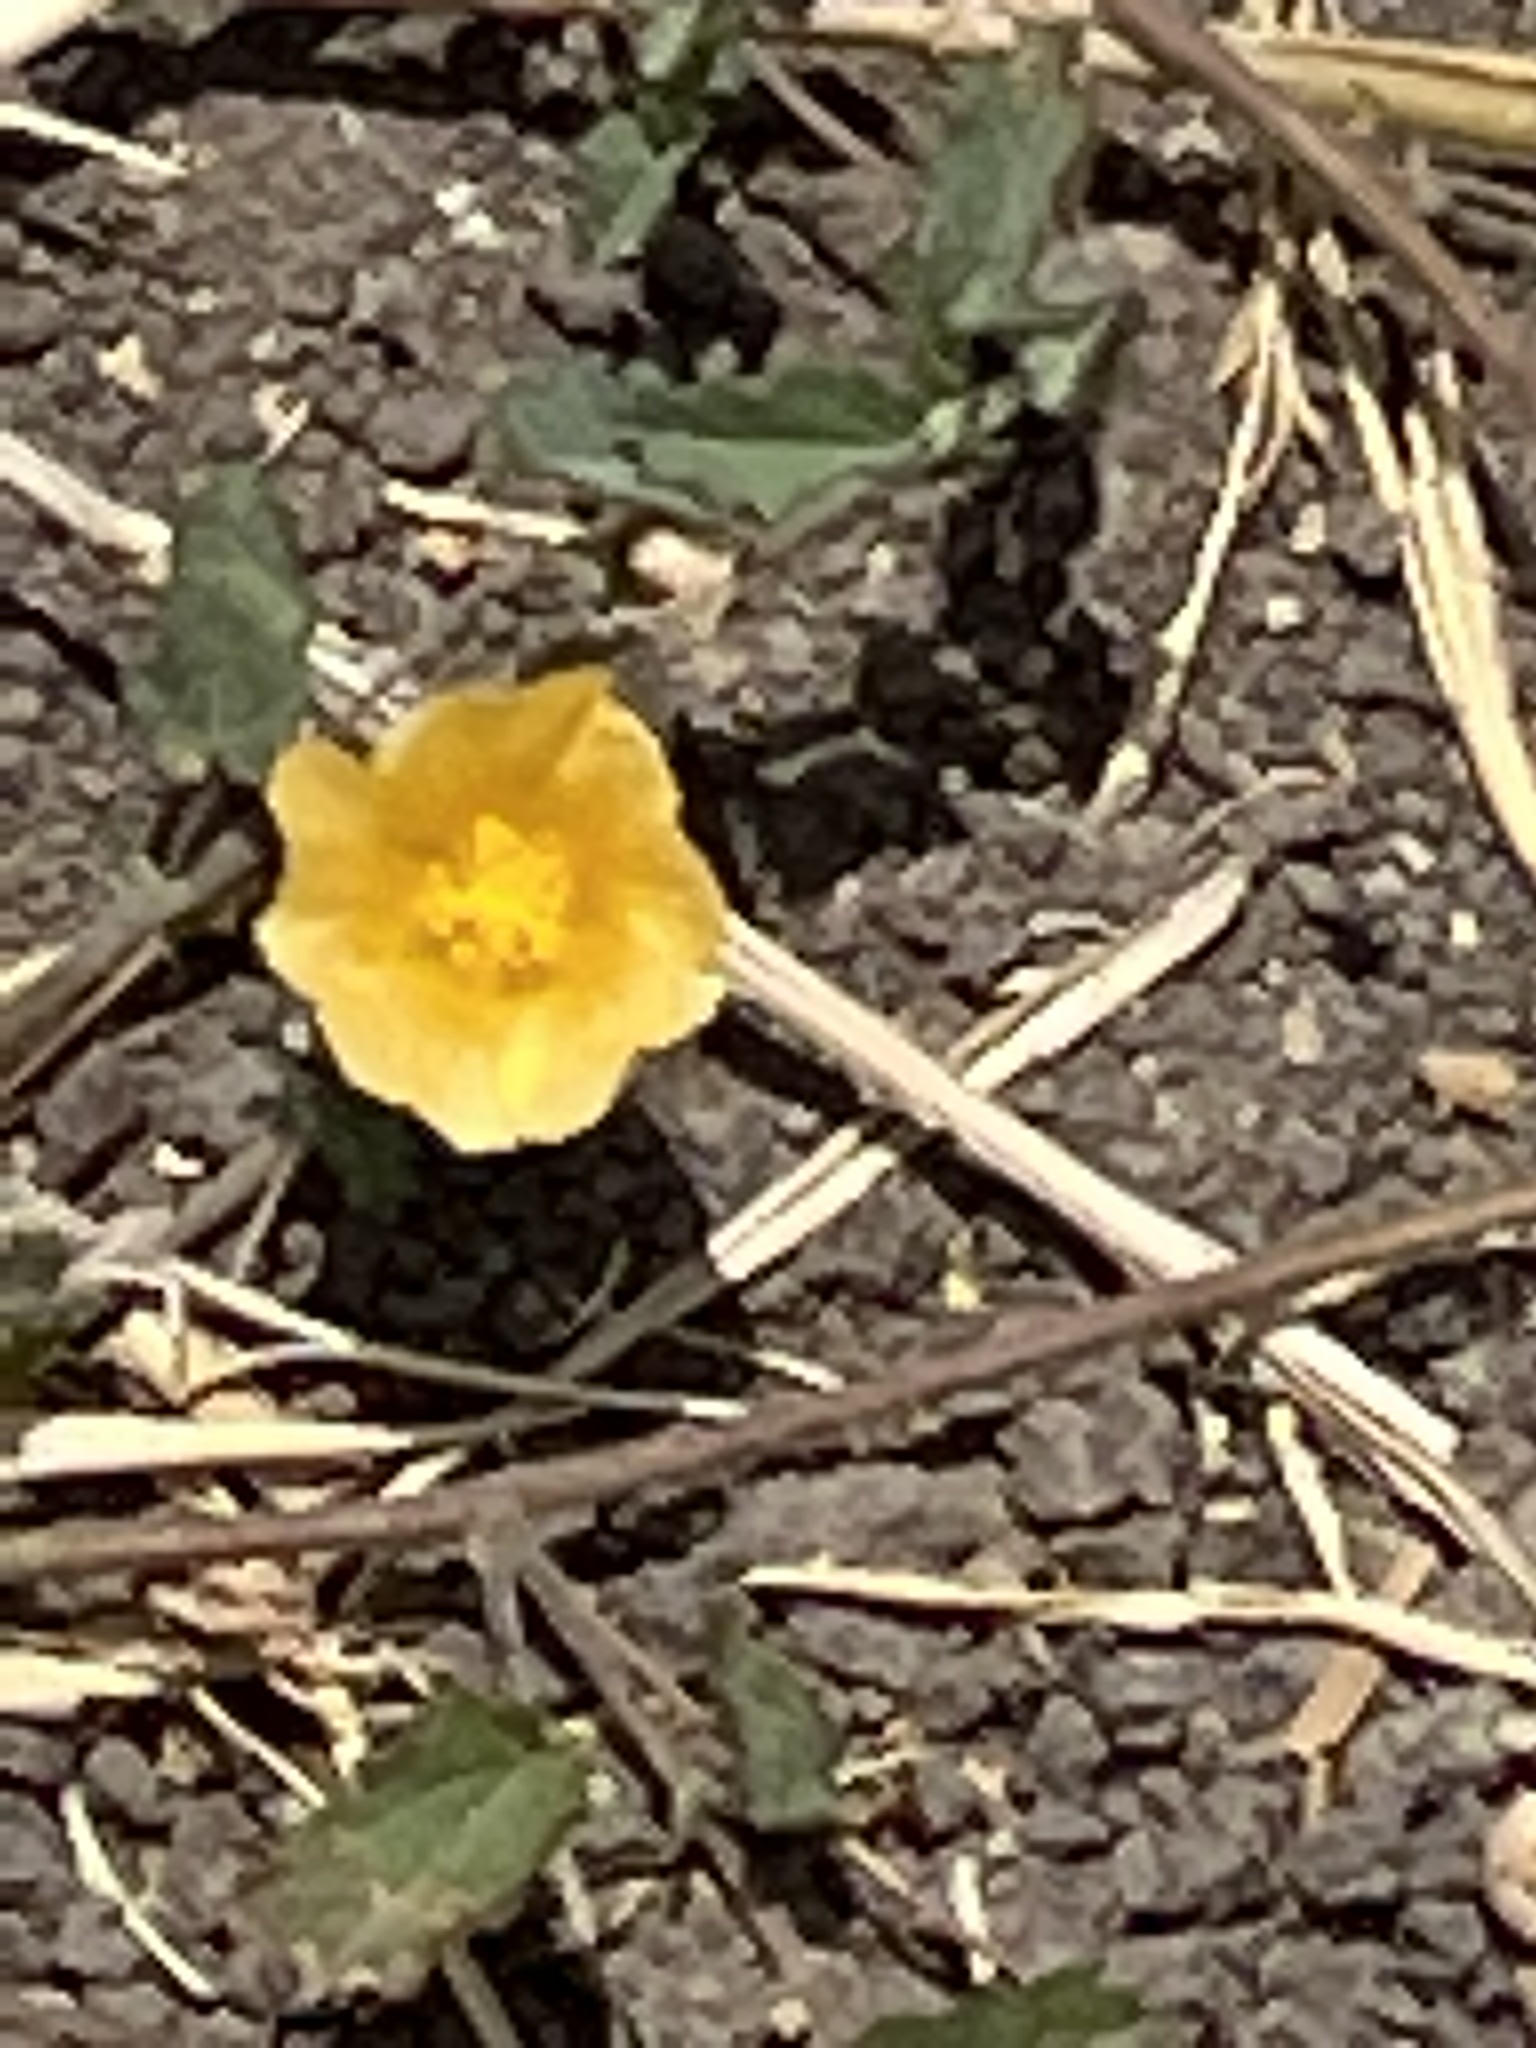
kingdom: Plantae
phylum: Tracheophyta
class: Magnoliopsida
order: Malvales
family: Malvaceae
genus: Sida
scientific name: Sida abutilifolia
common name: Spreading fanpetals
